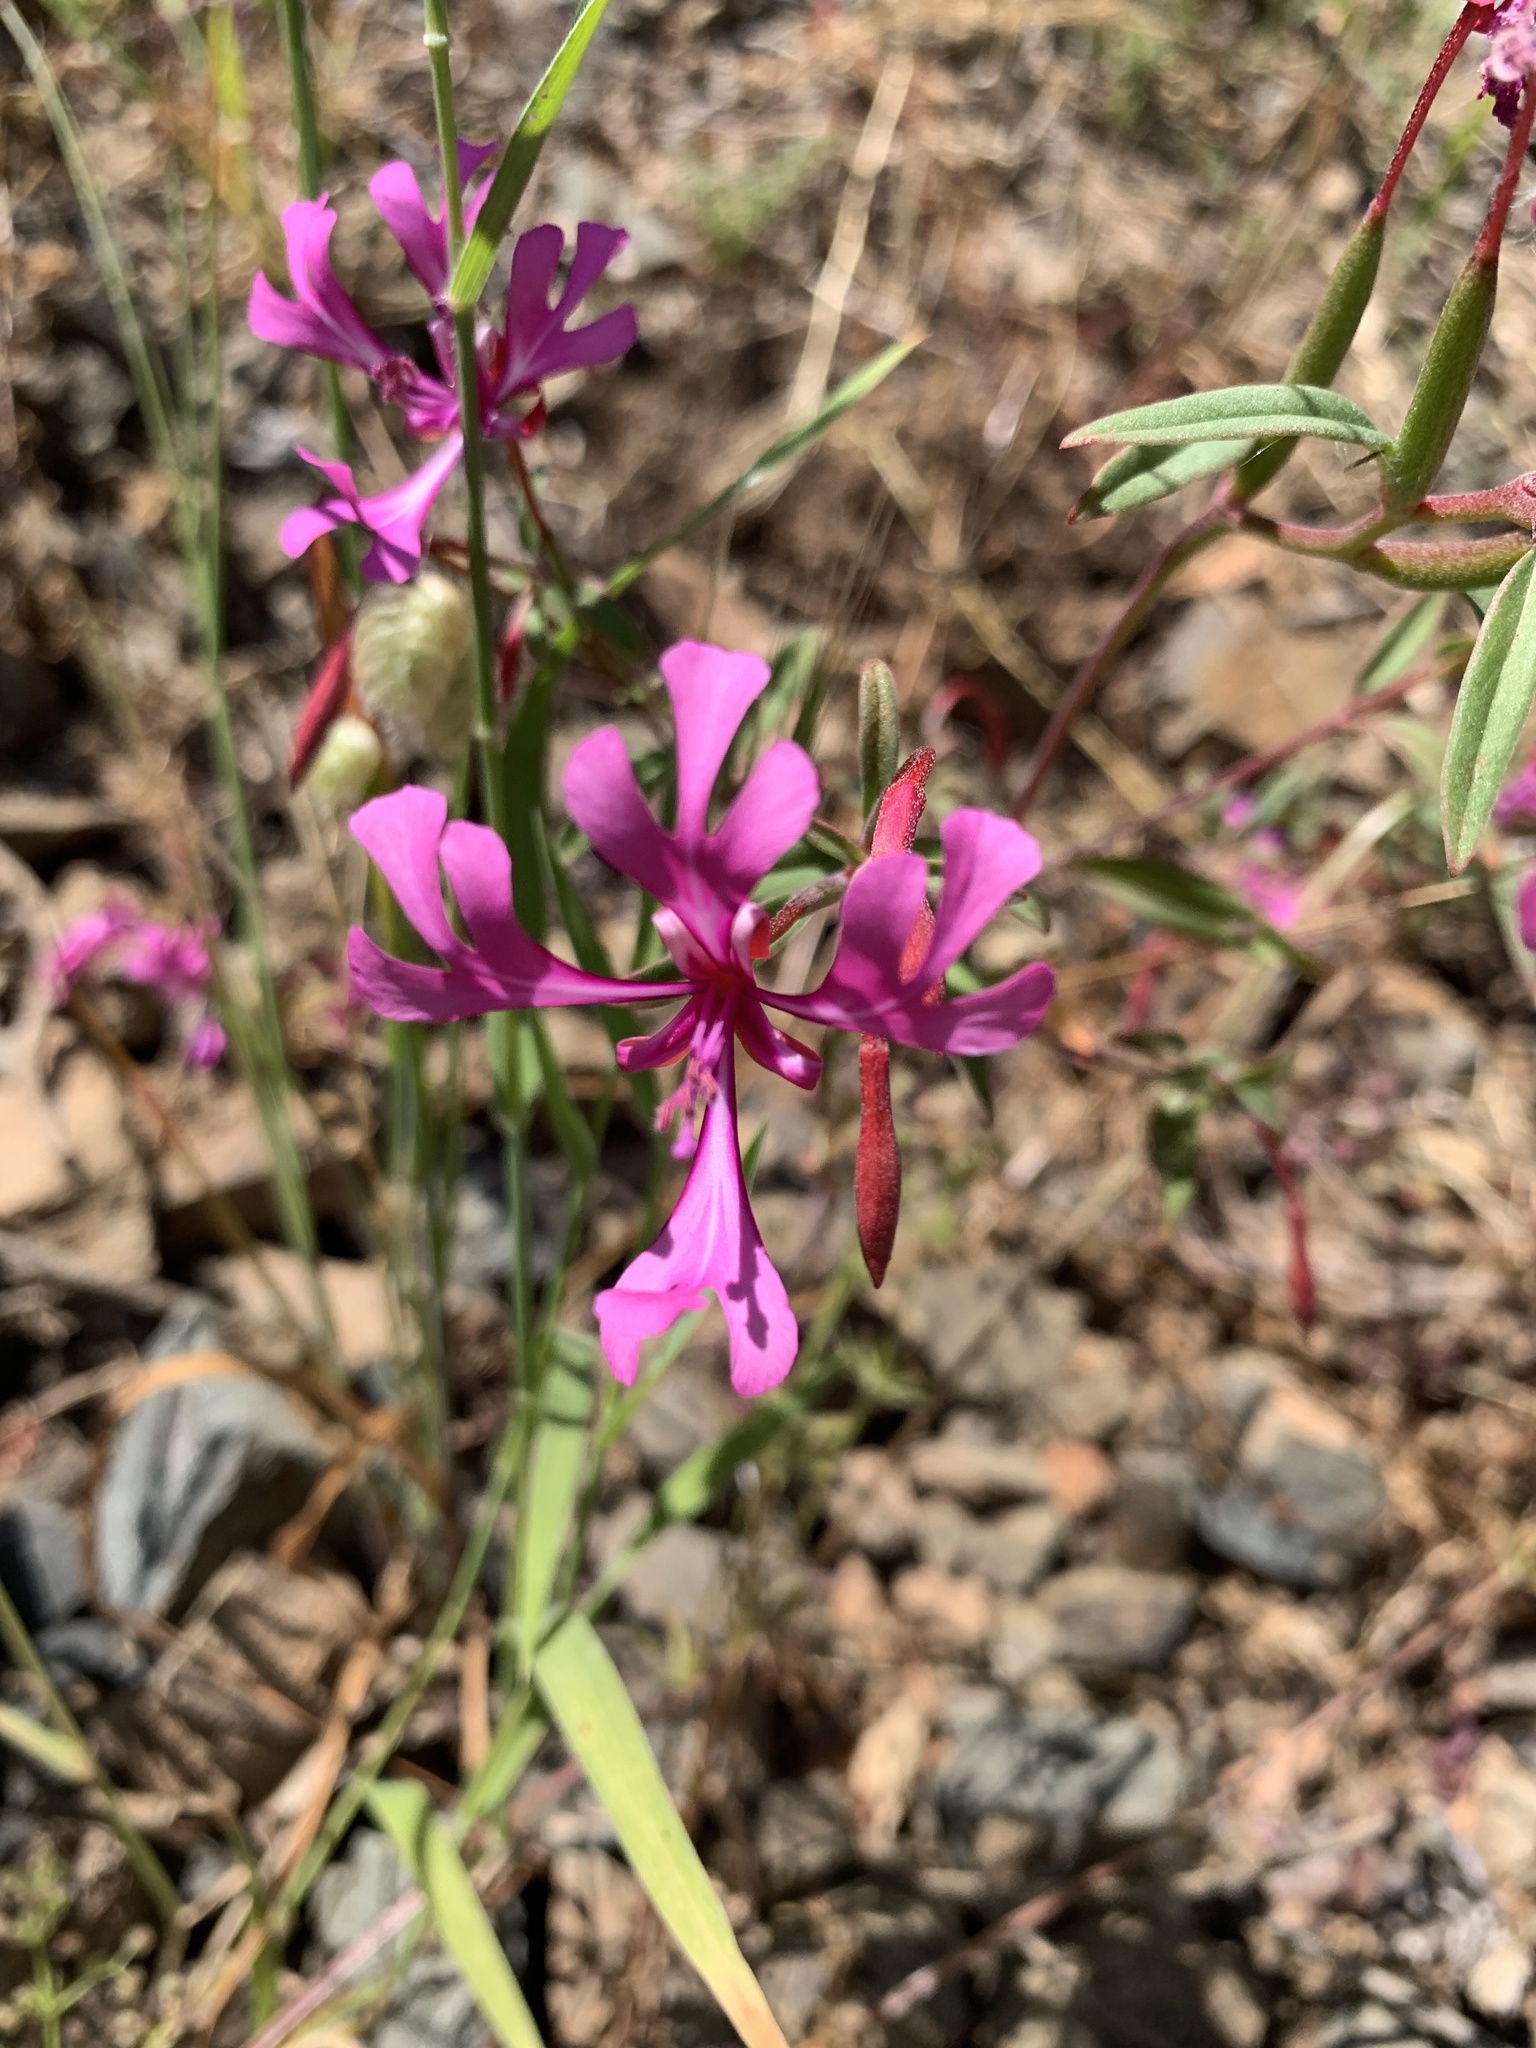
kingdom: Plantae
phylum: Tracheophyta
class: Magnoliopsida
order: Myrtales
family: Onagraceae
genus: Clarkia
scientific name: Clarkia concinna
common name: Red-ribbons
